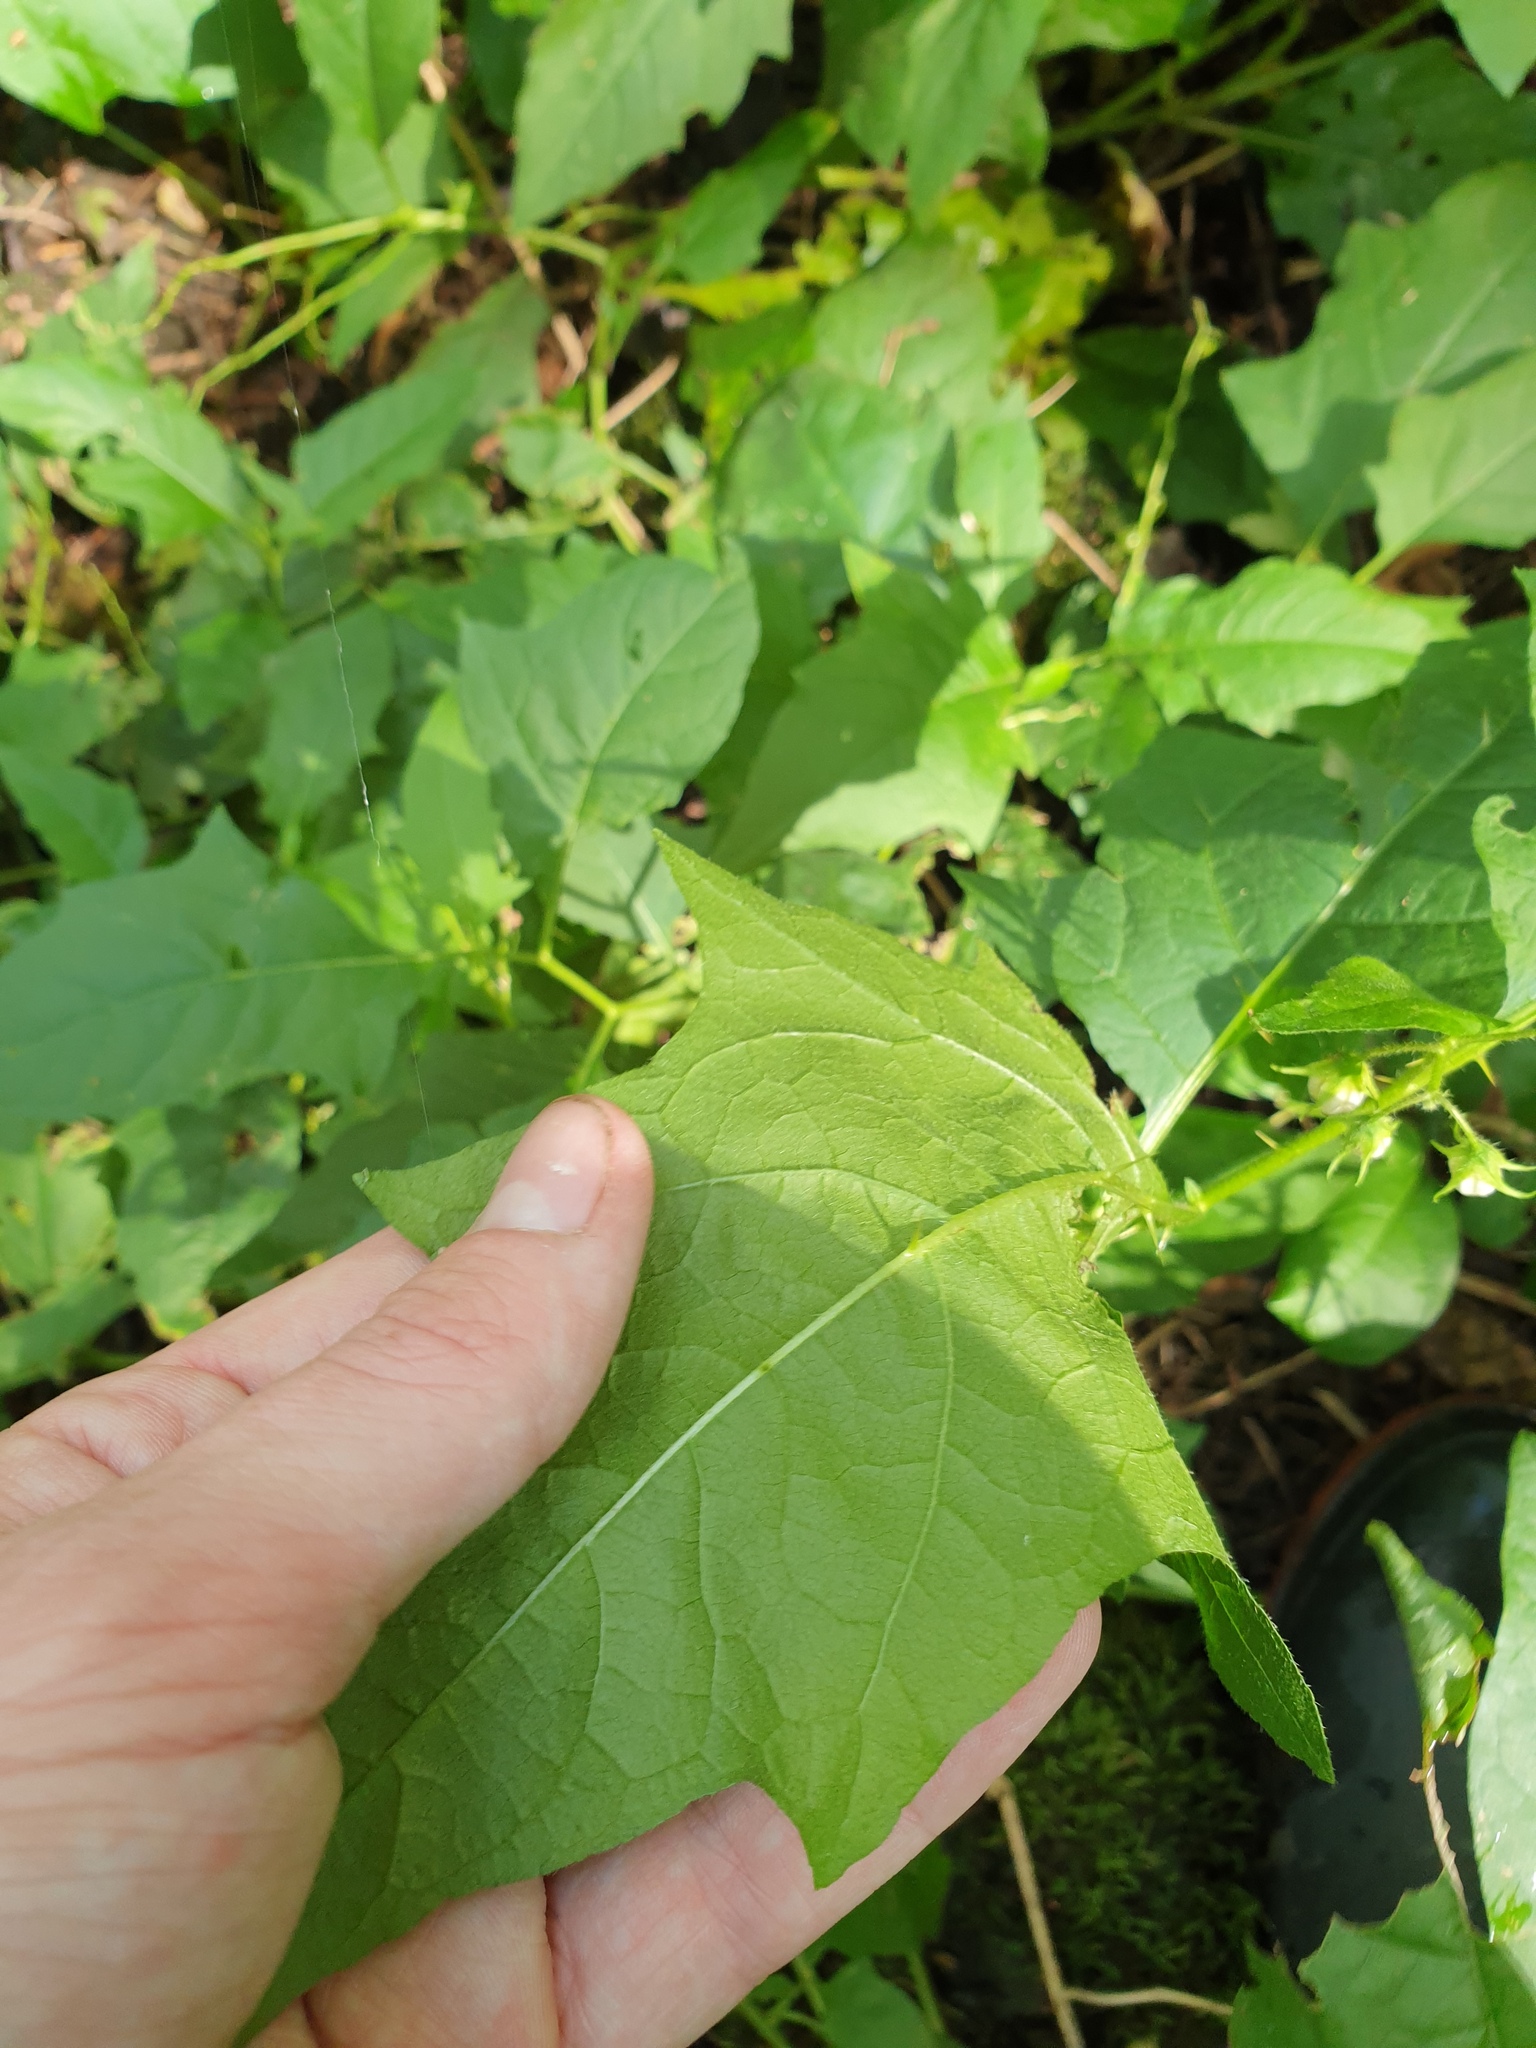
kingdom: Plantae
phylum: Tracheophyta
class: Magnoliopsida
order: Solanales
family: Solanaceae
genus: Solanum
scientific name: Solanum carolinense
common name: Horse-nettle
